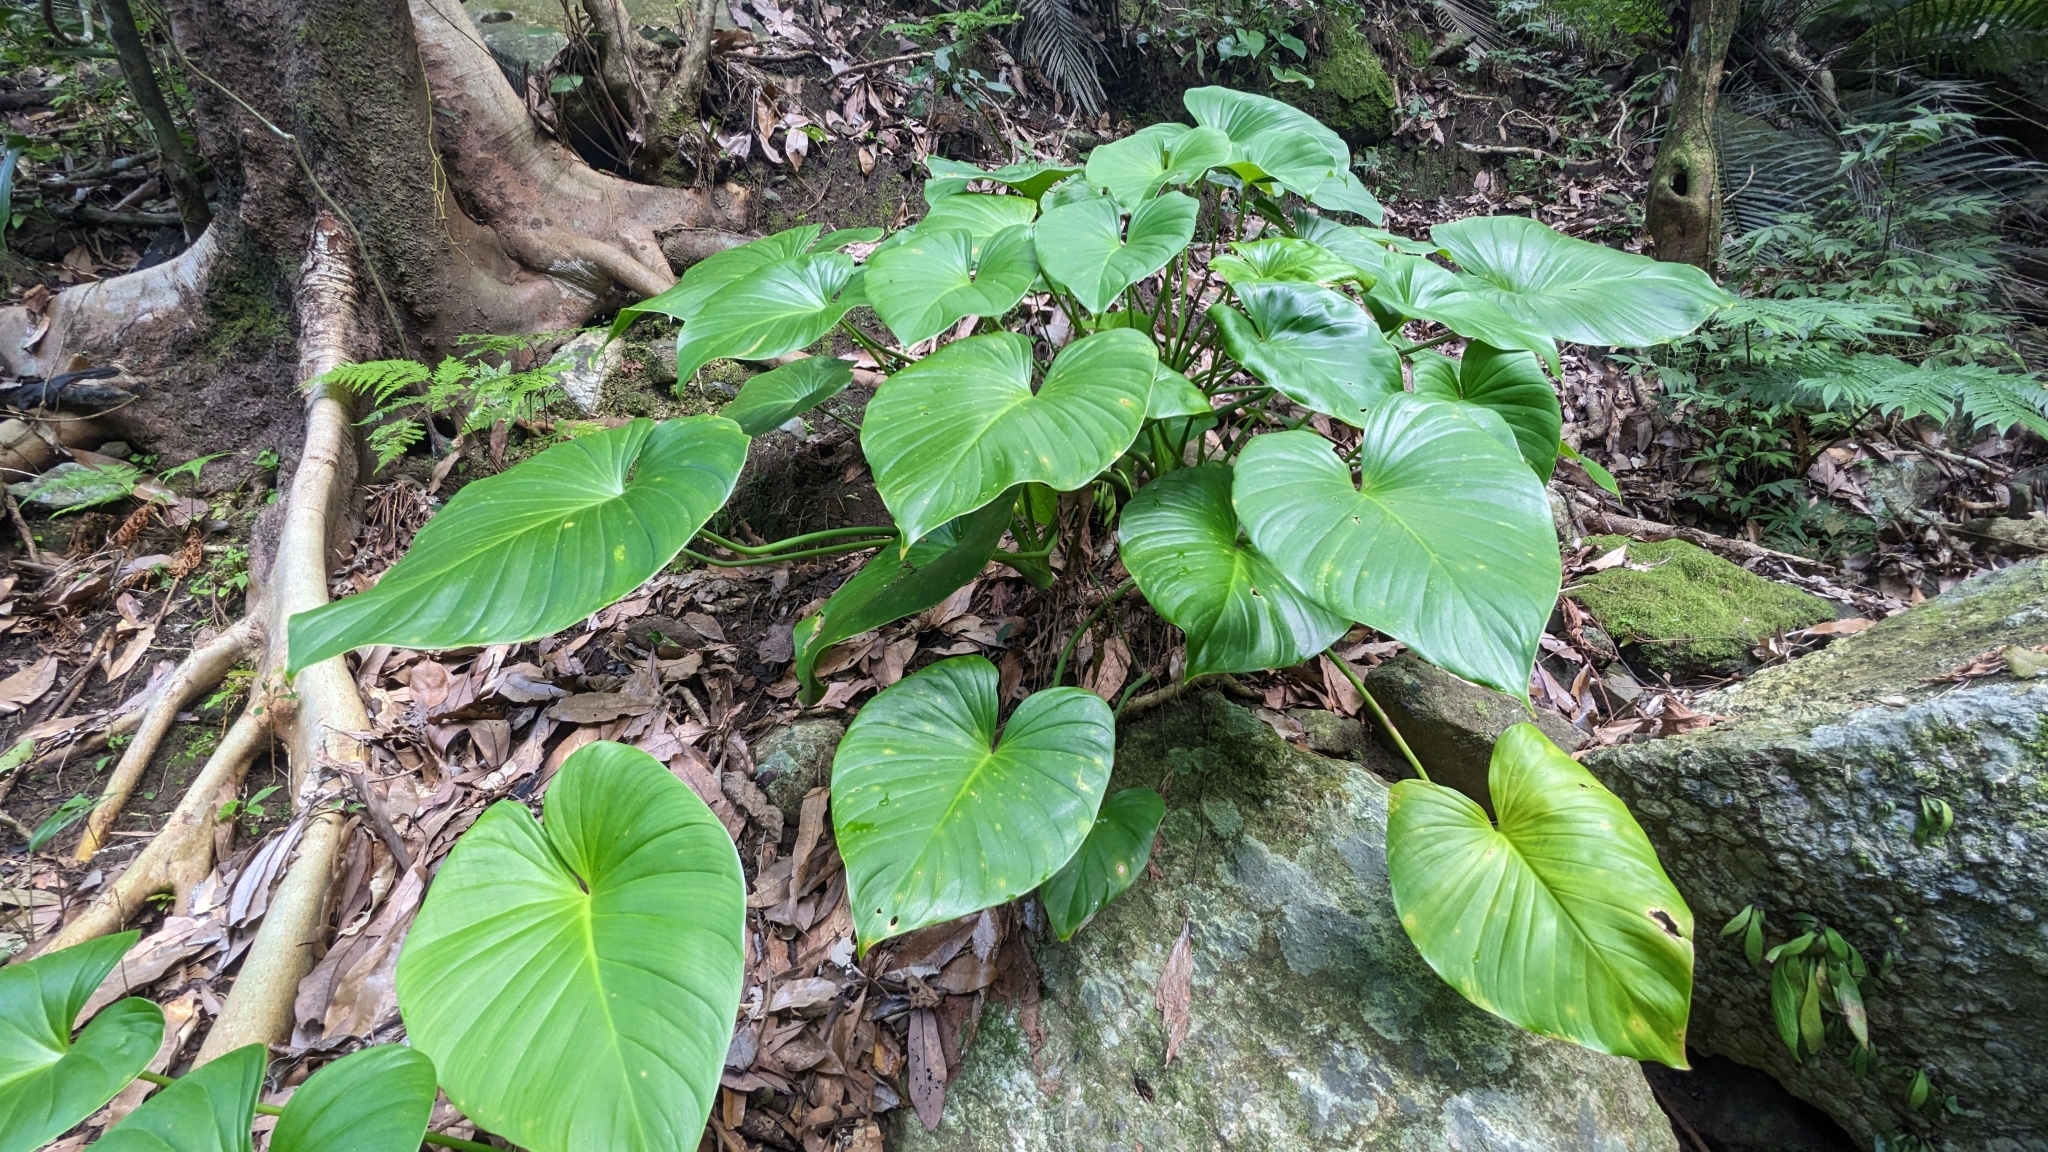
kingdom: Plantae
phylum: Tracheophyta
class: Liliopsida
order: Alismatales
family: Araceae
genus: Homalomena
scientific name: Homalomena philippinensis
